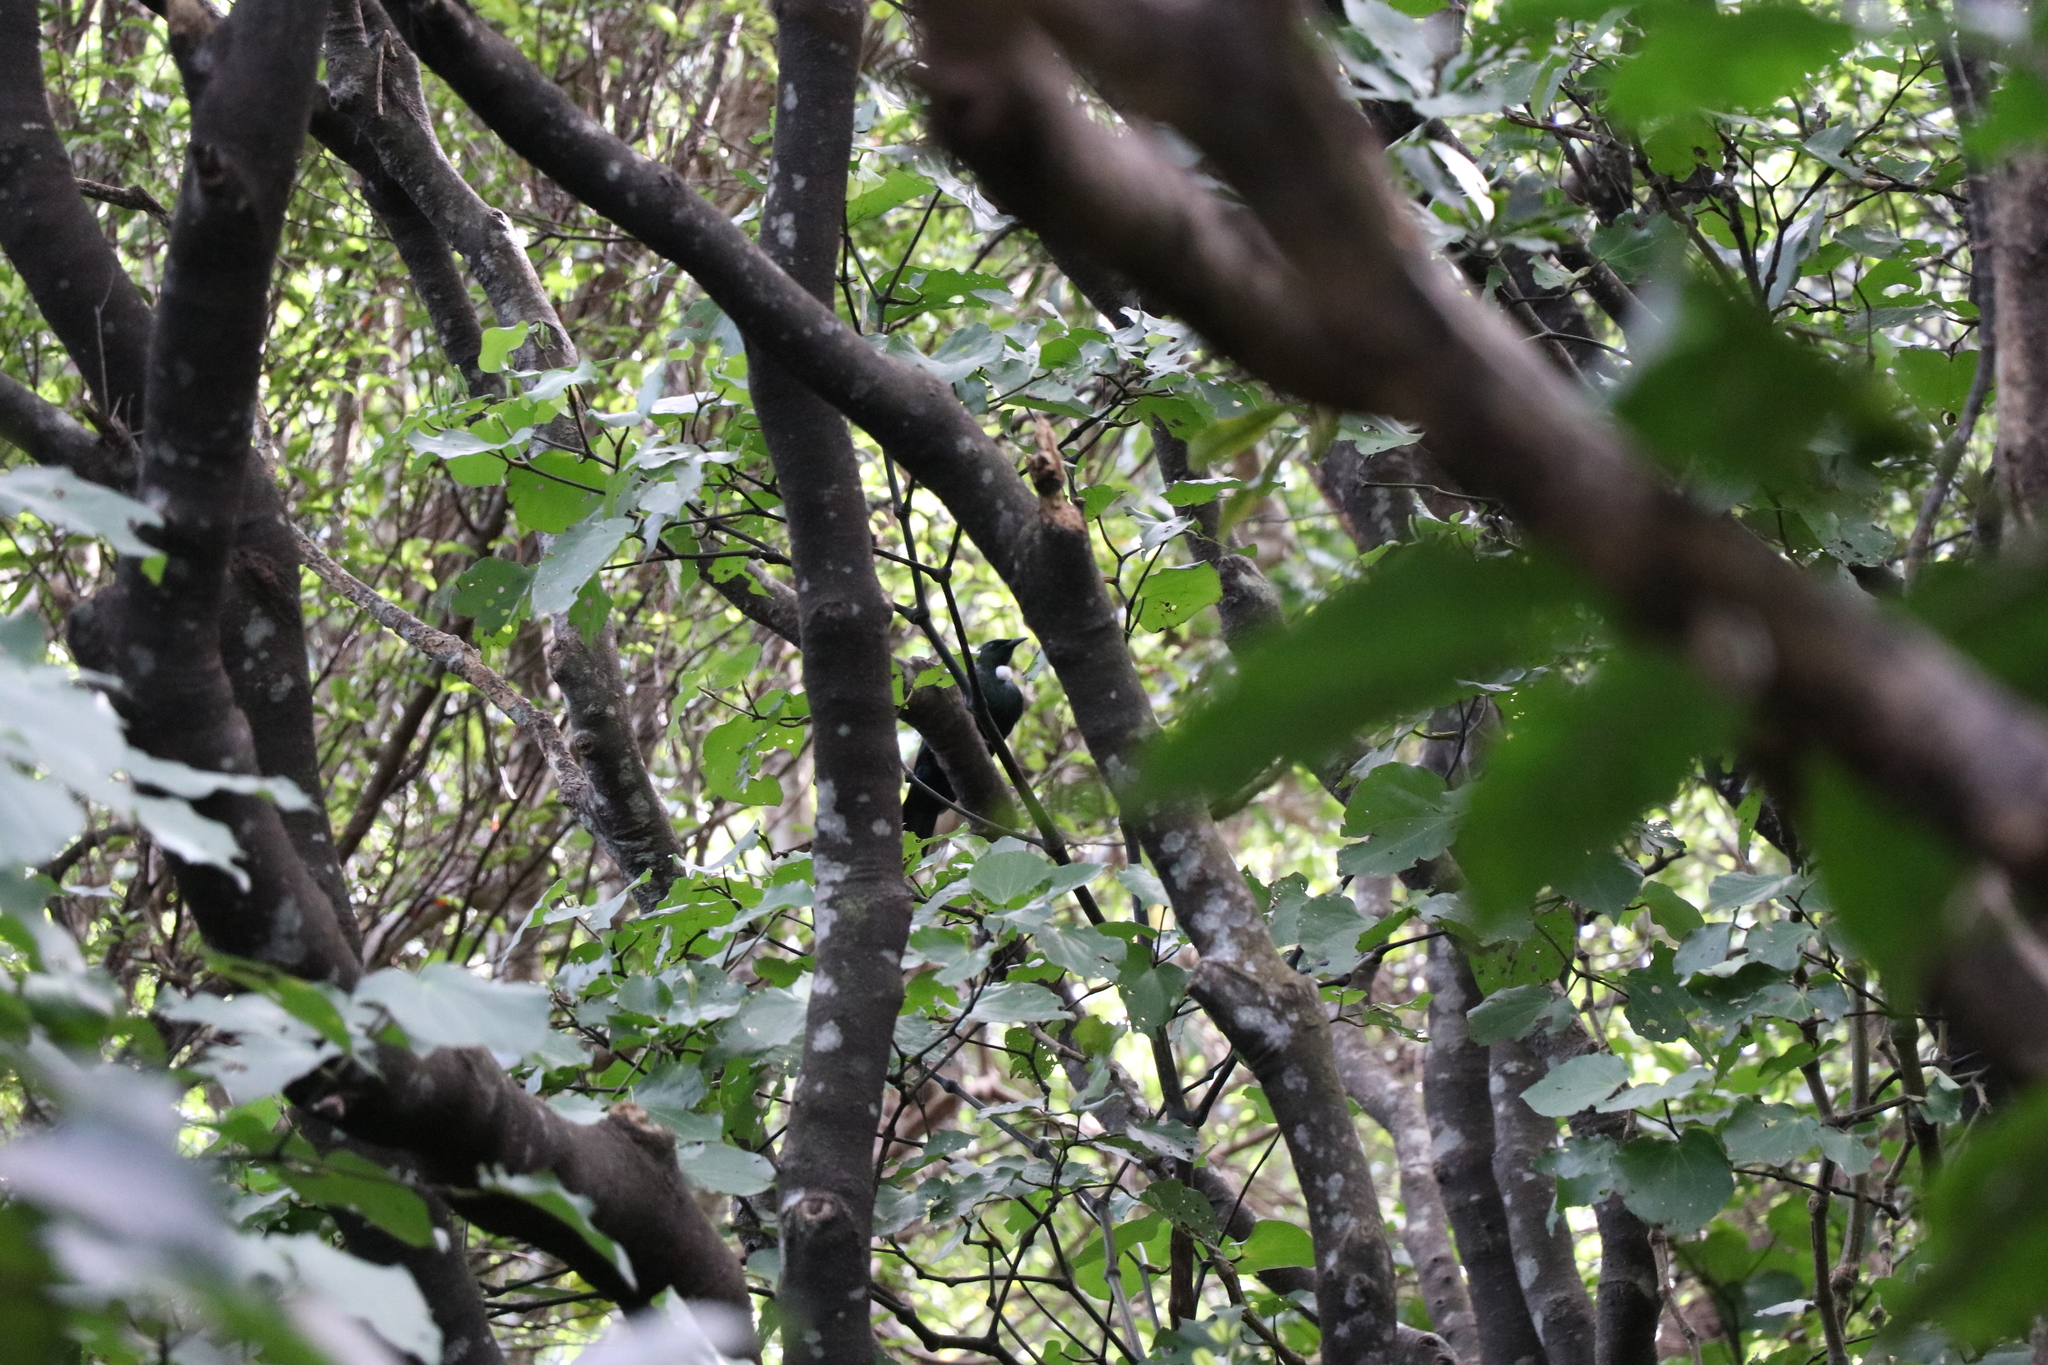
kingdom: Animalia
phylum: Chordata
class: Aves
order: Passeriformes
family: Meliphagidae
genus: Prosthemadera
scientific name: Prosthemadera novaeseelandiae
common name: Tui
